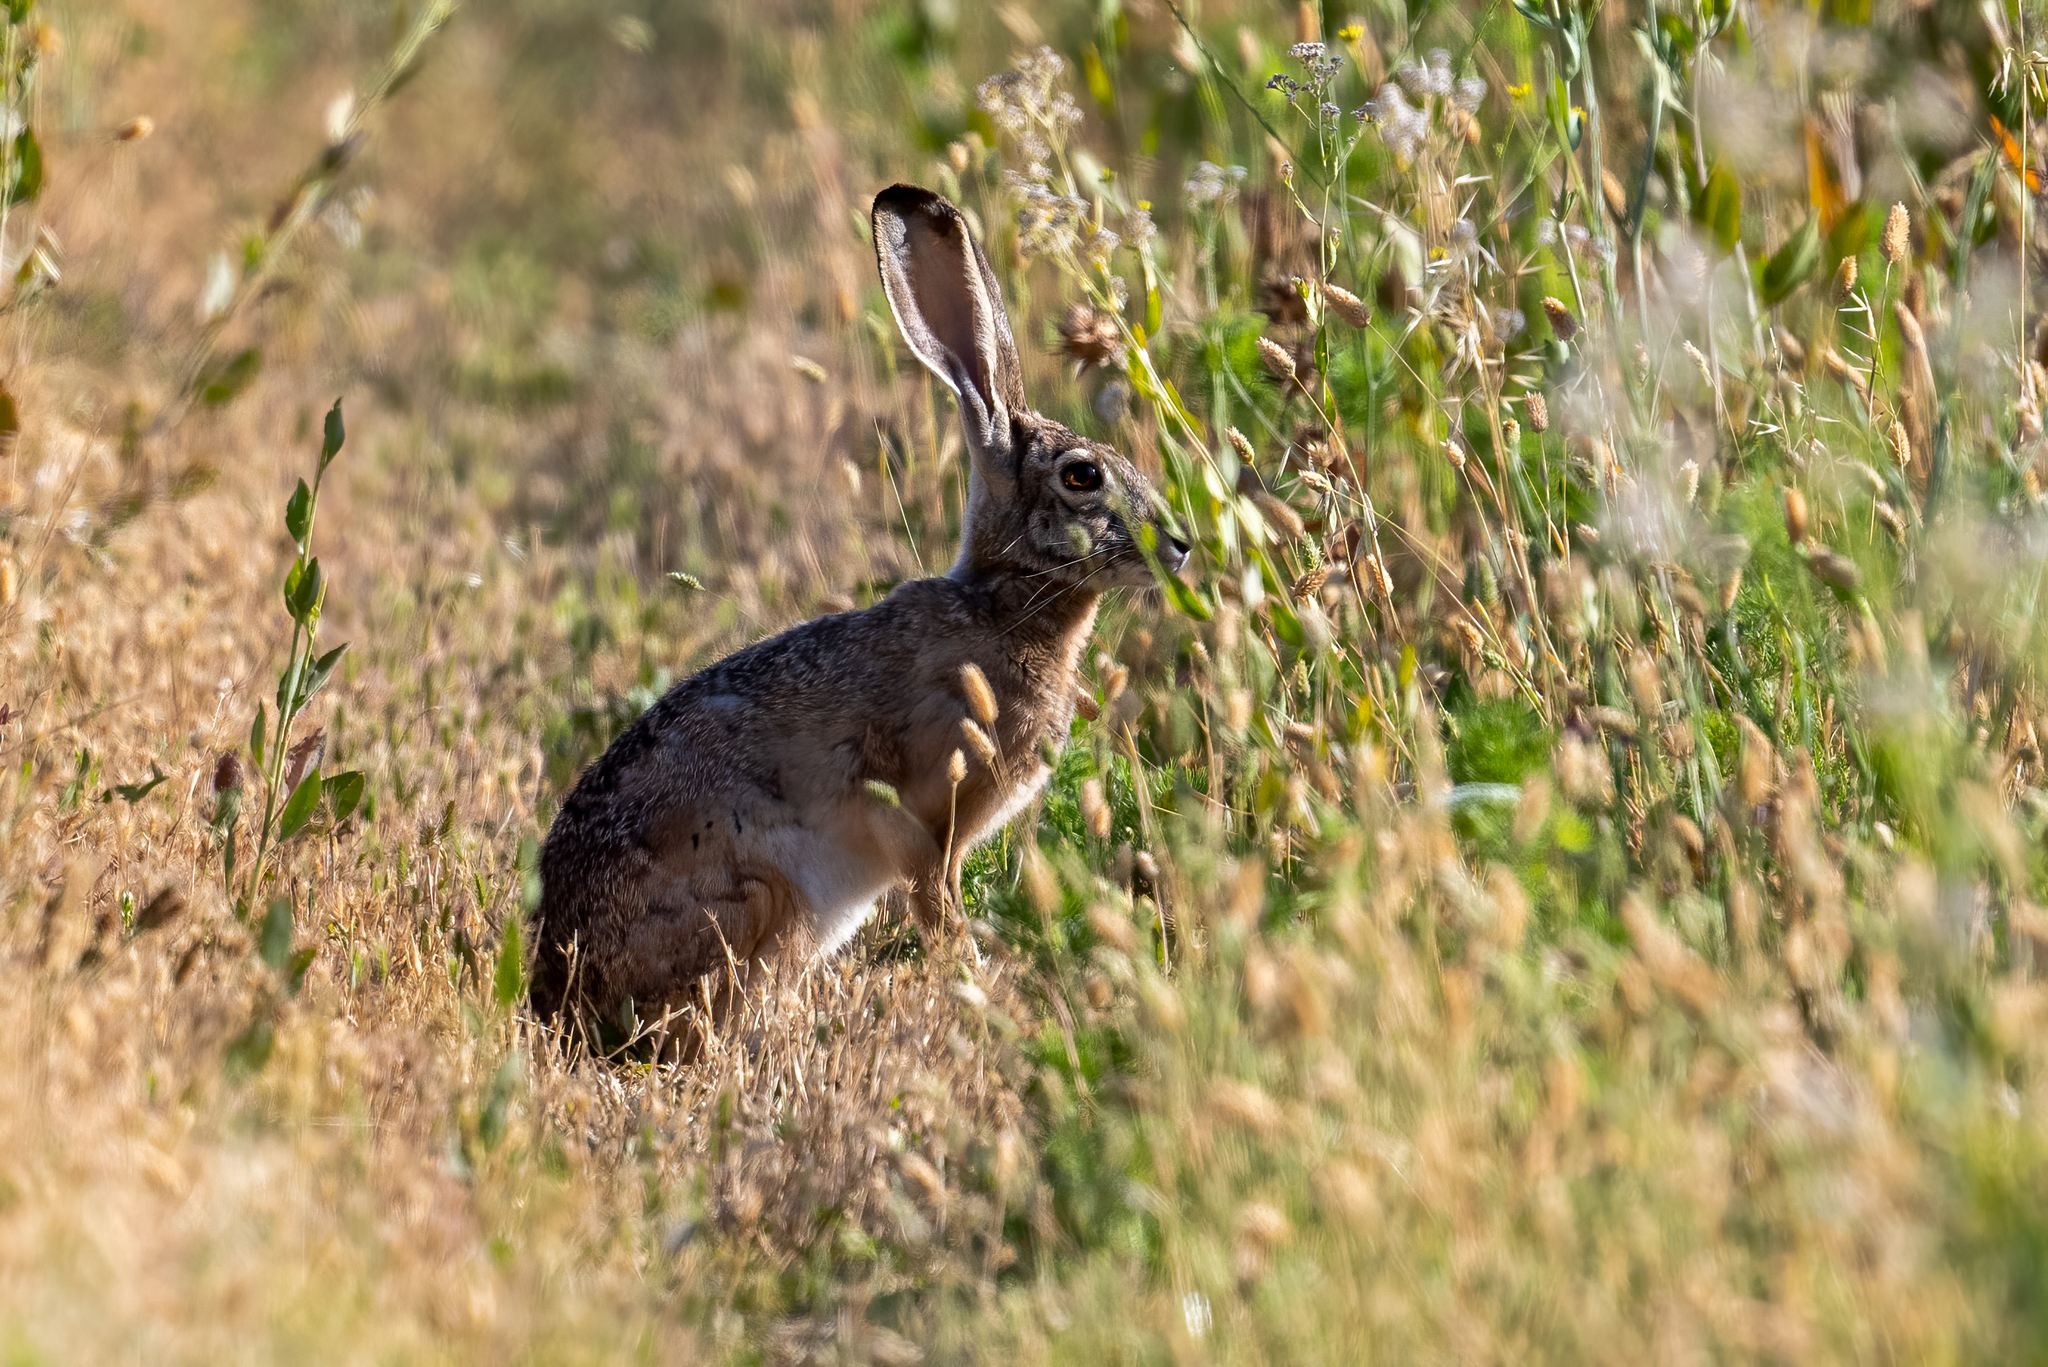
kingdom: Animalia
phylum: Chordata
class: Mammalia
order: Lagomorpha
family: Leporidae
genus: Lepus
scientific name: Lepus californicus
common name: Black-tailed jackrabbit
